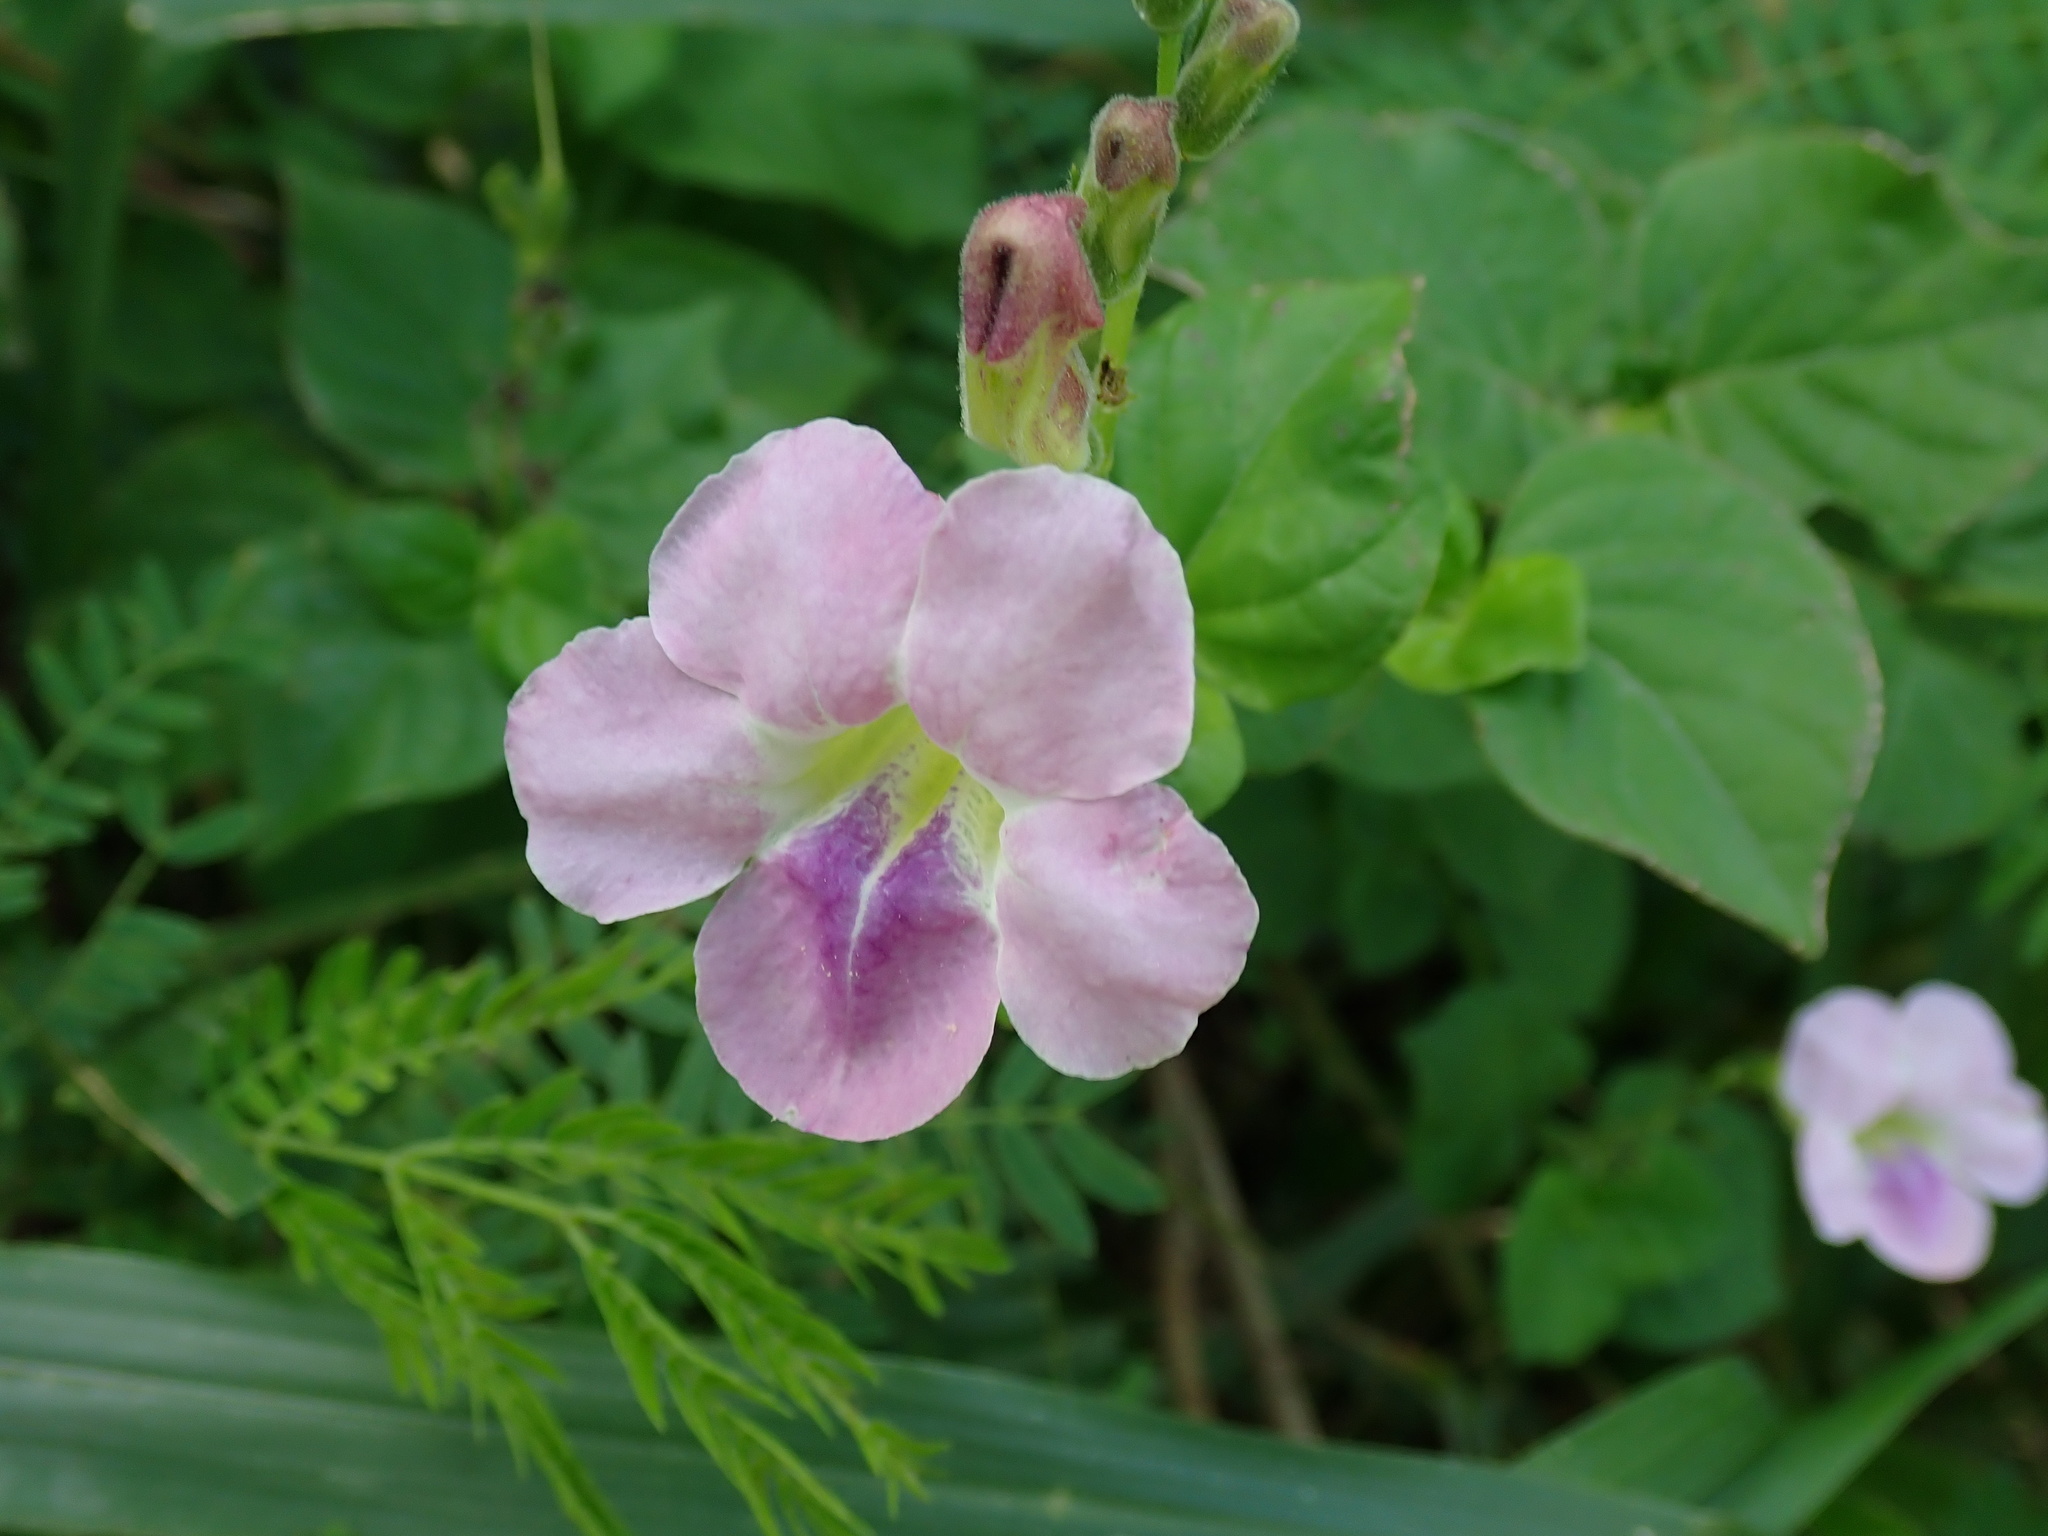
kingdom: Plantae
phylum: Tracheophyta
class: Magnoliopsida
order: Lamiales
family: Acanthaceae
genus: Asystasia
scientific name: Asystasia gangetica
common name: Chinese violet
